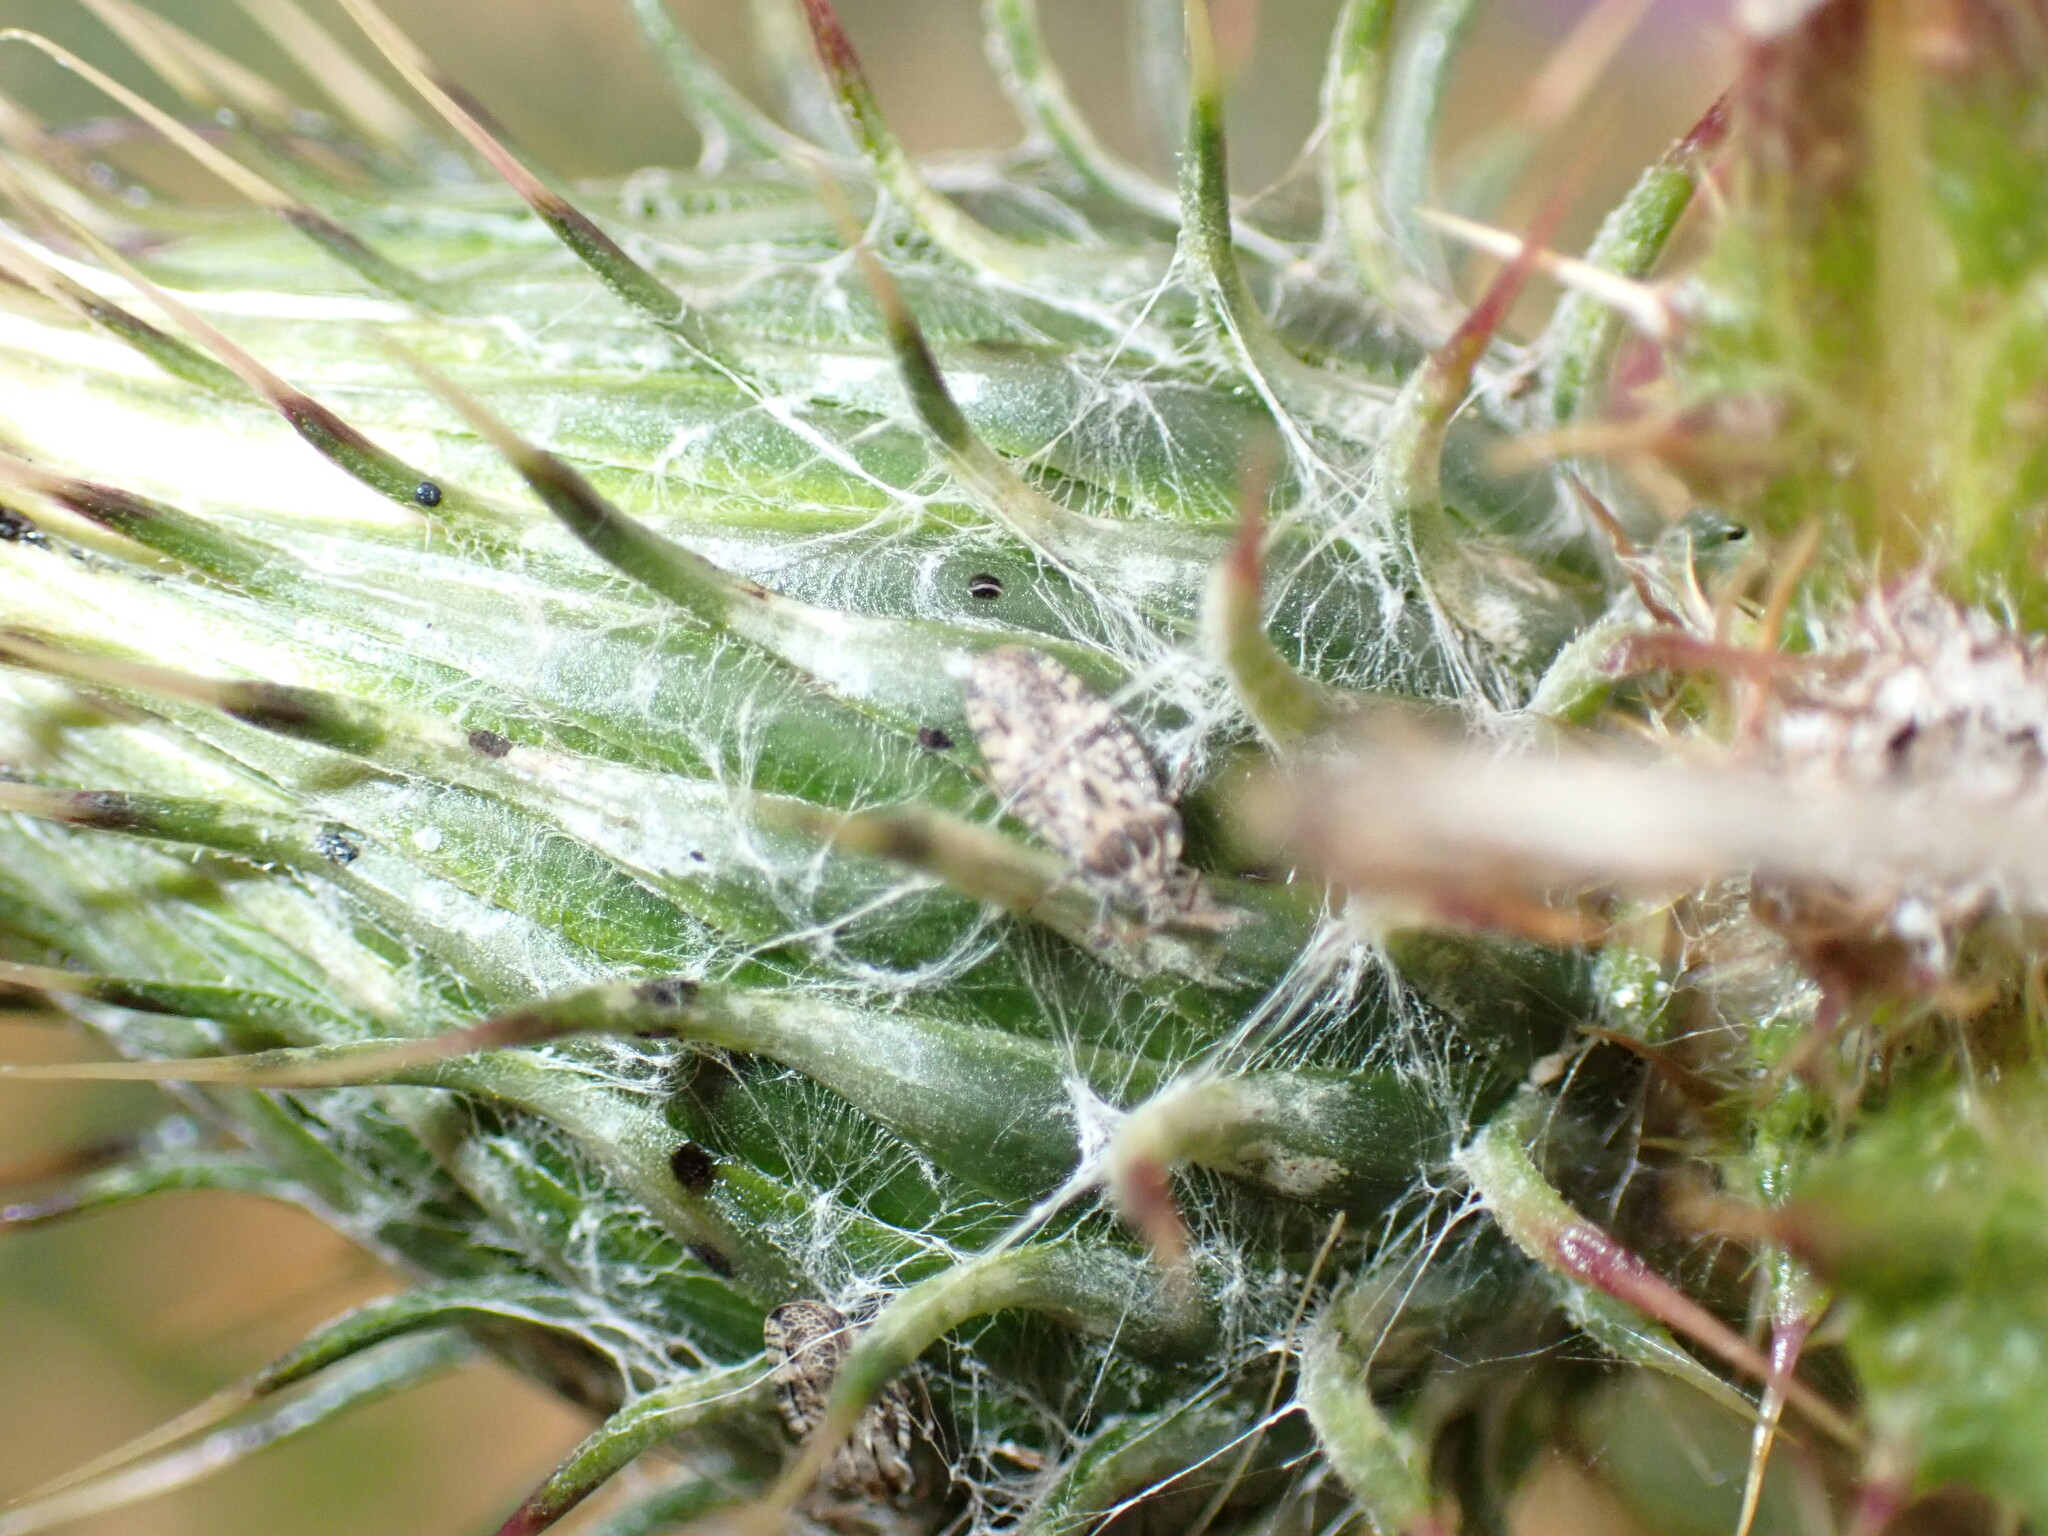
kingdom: Animalia
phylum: Arthropoda
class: Insecta
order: Hemiptera
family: Tingidae
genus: Tingis
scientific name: Tingis cardui
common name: Spear thistle lacebug
